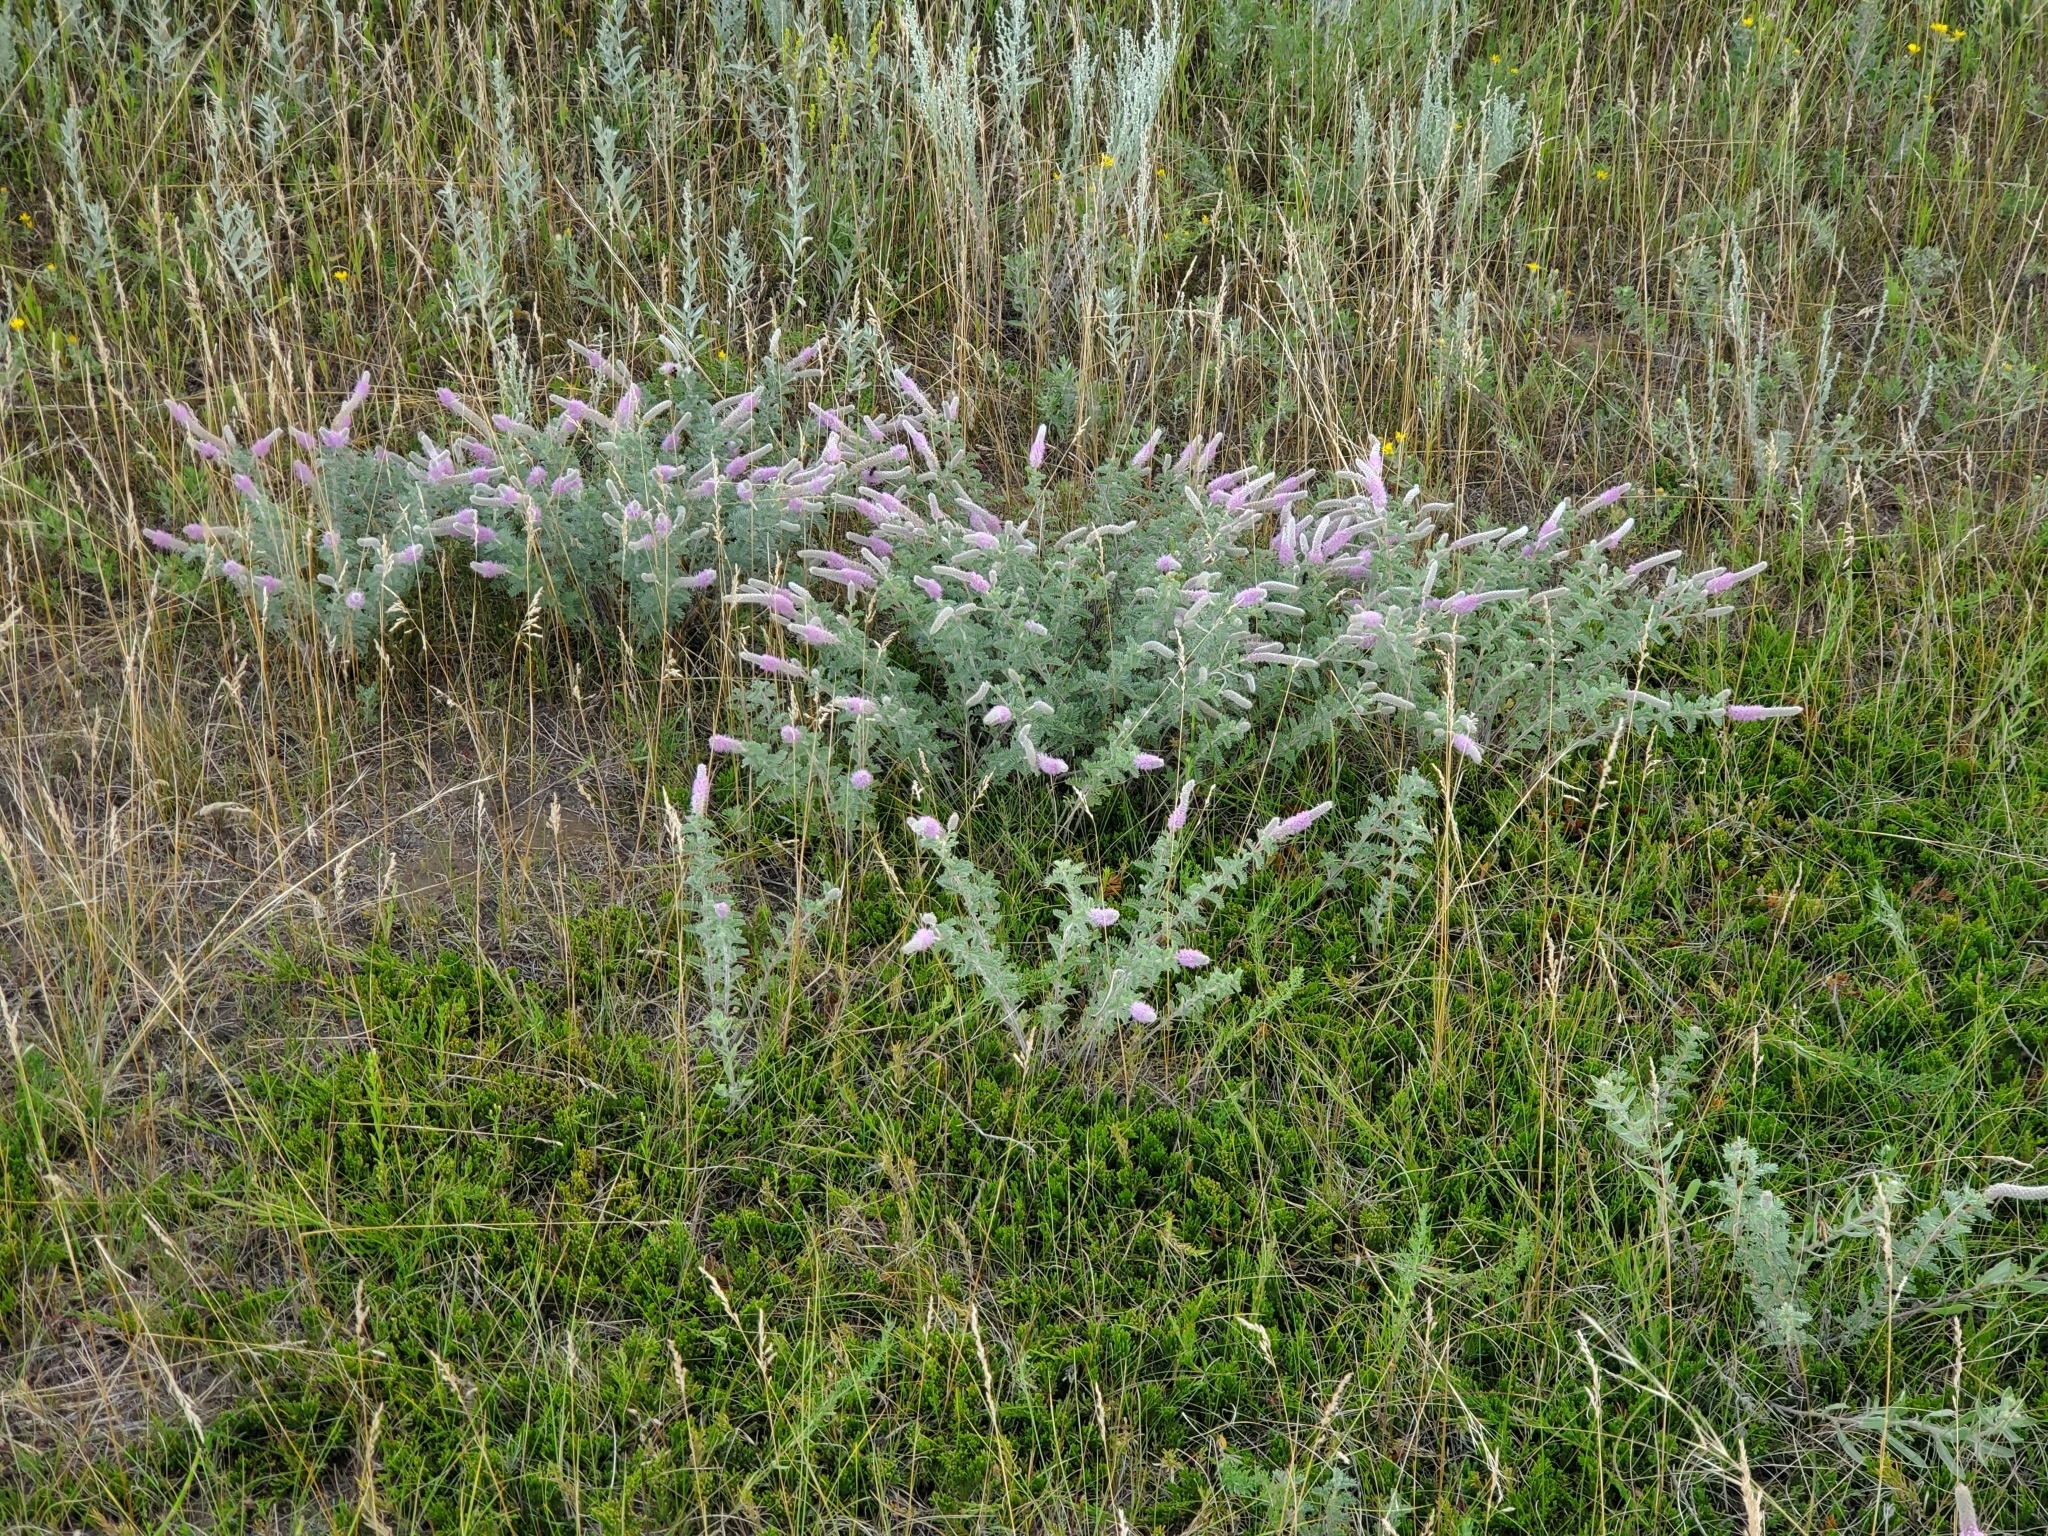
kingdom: Plantae
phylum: Tracheophyta
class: Magnoliopsida
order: Fabales
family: Fabaceae
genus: Dalea
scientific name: Dalea villosa
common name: Silky prairie-clover
